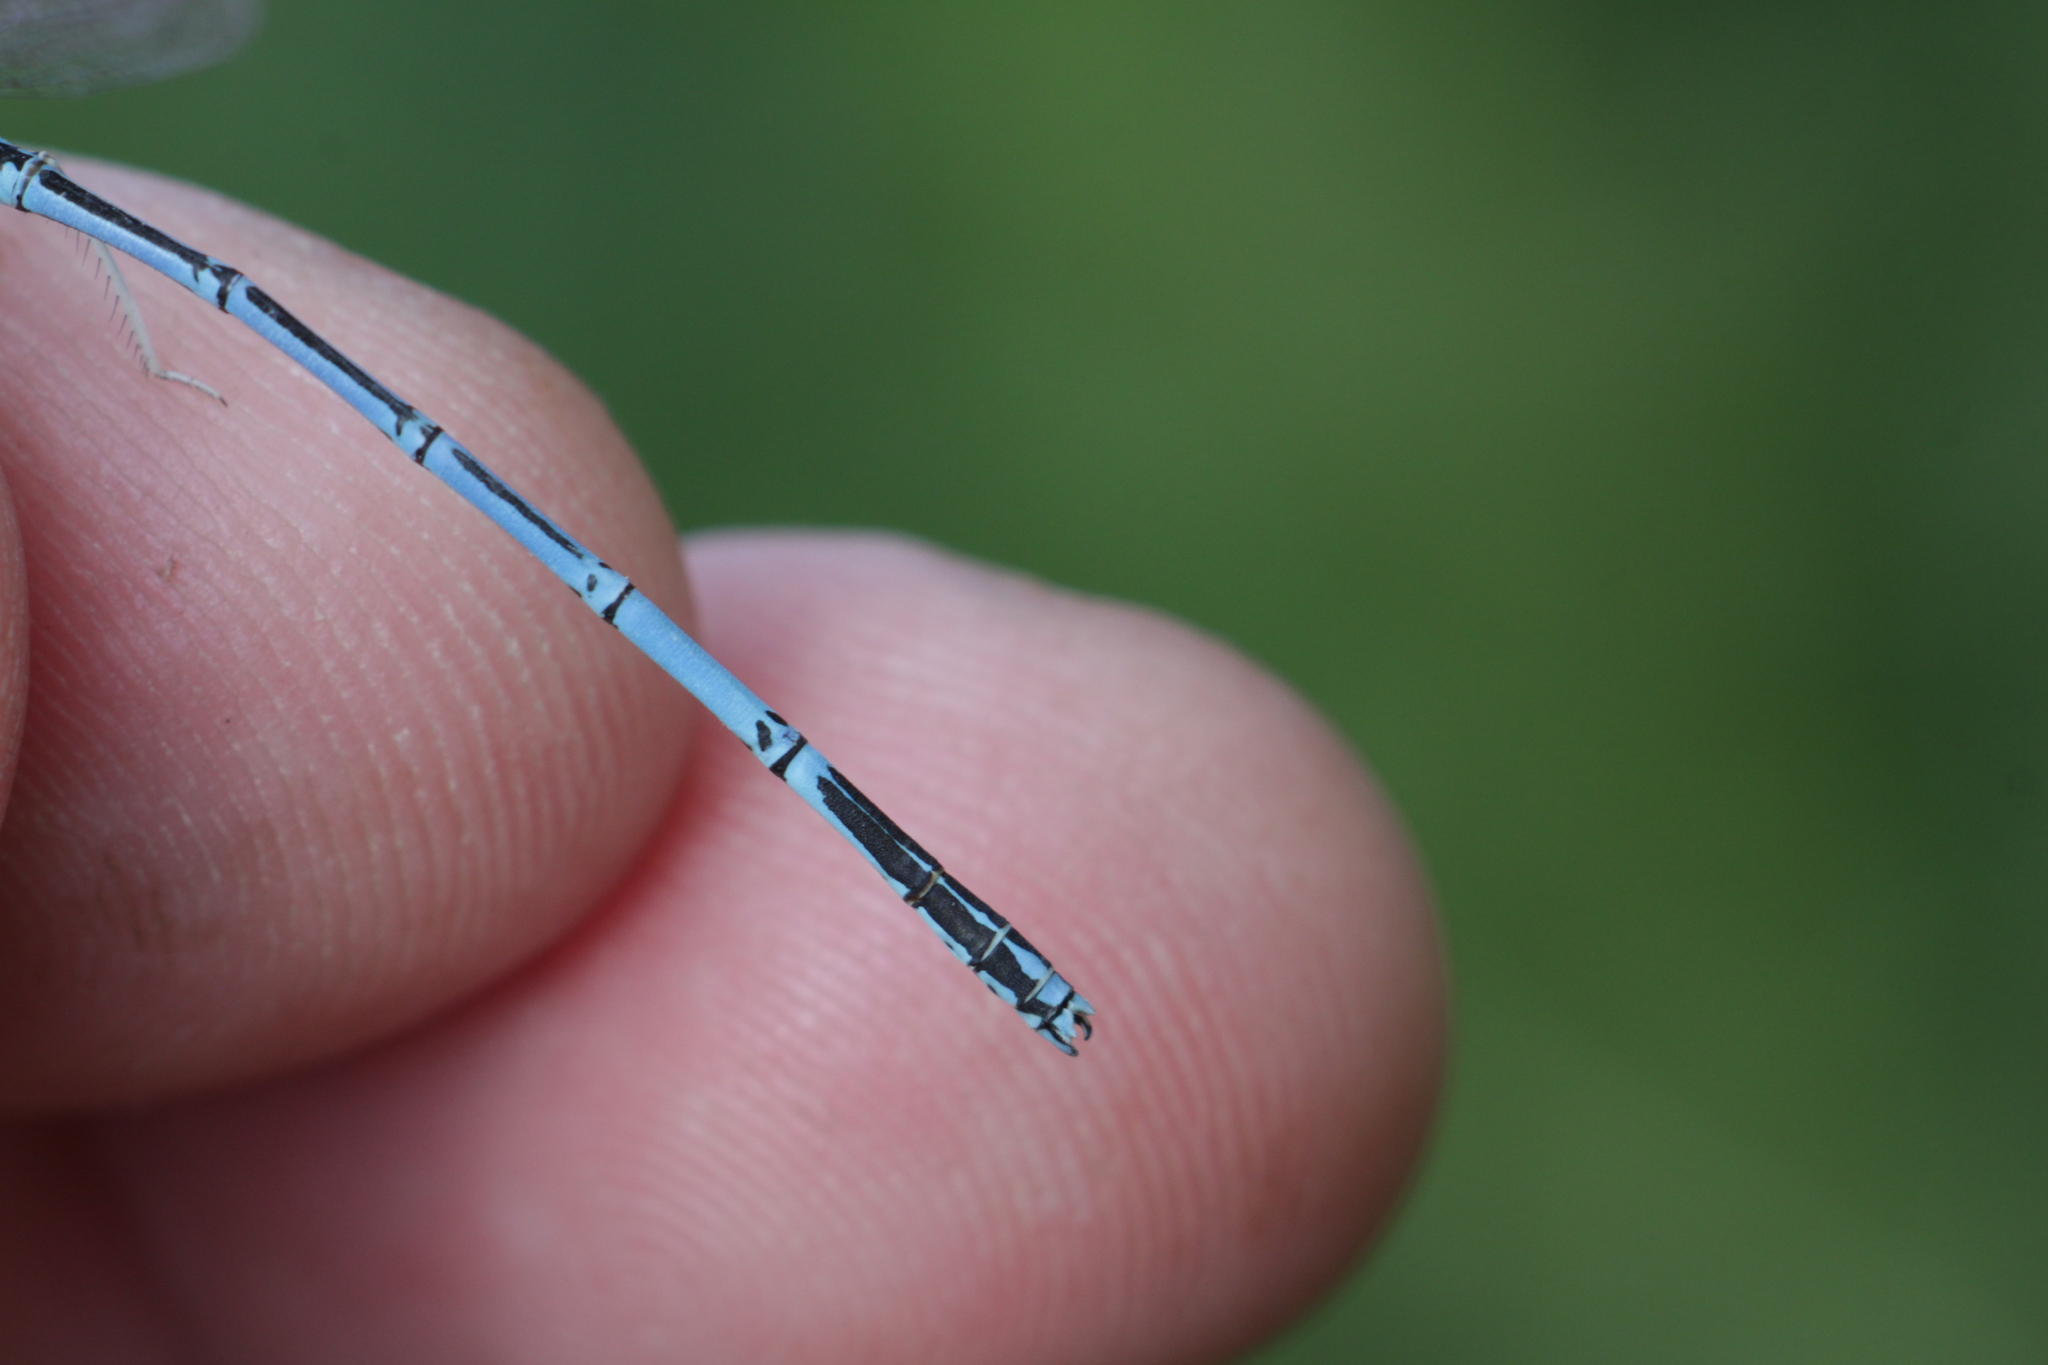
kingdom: Animalia
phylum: Arthropoda
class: Insecta
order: Odonata
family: Platycnemididae
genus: Platycnemis
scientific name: Platycnemis pennipes
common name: White-legged damselfly
